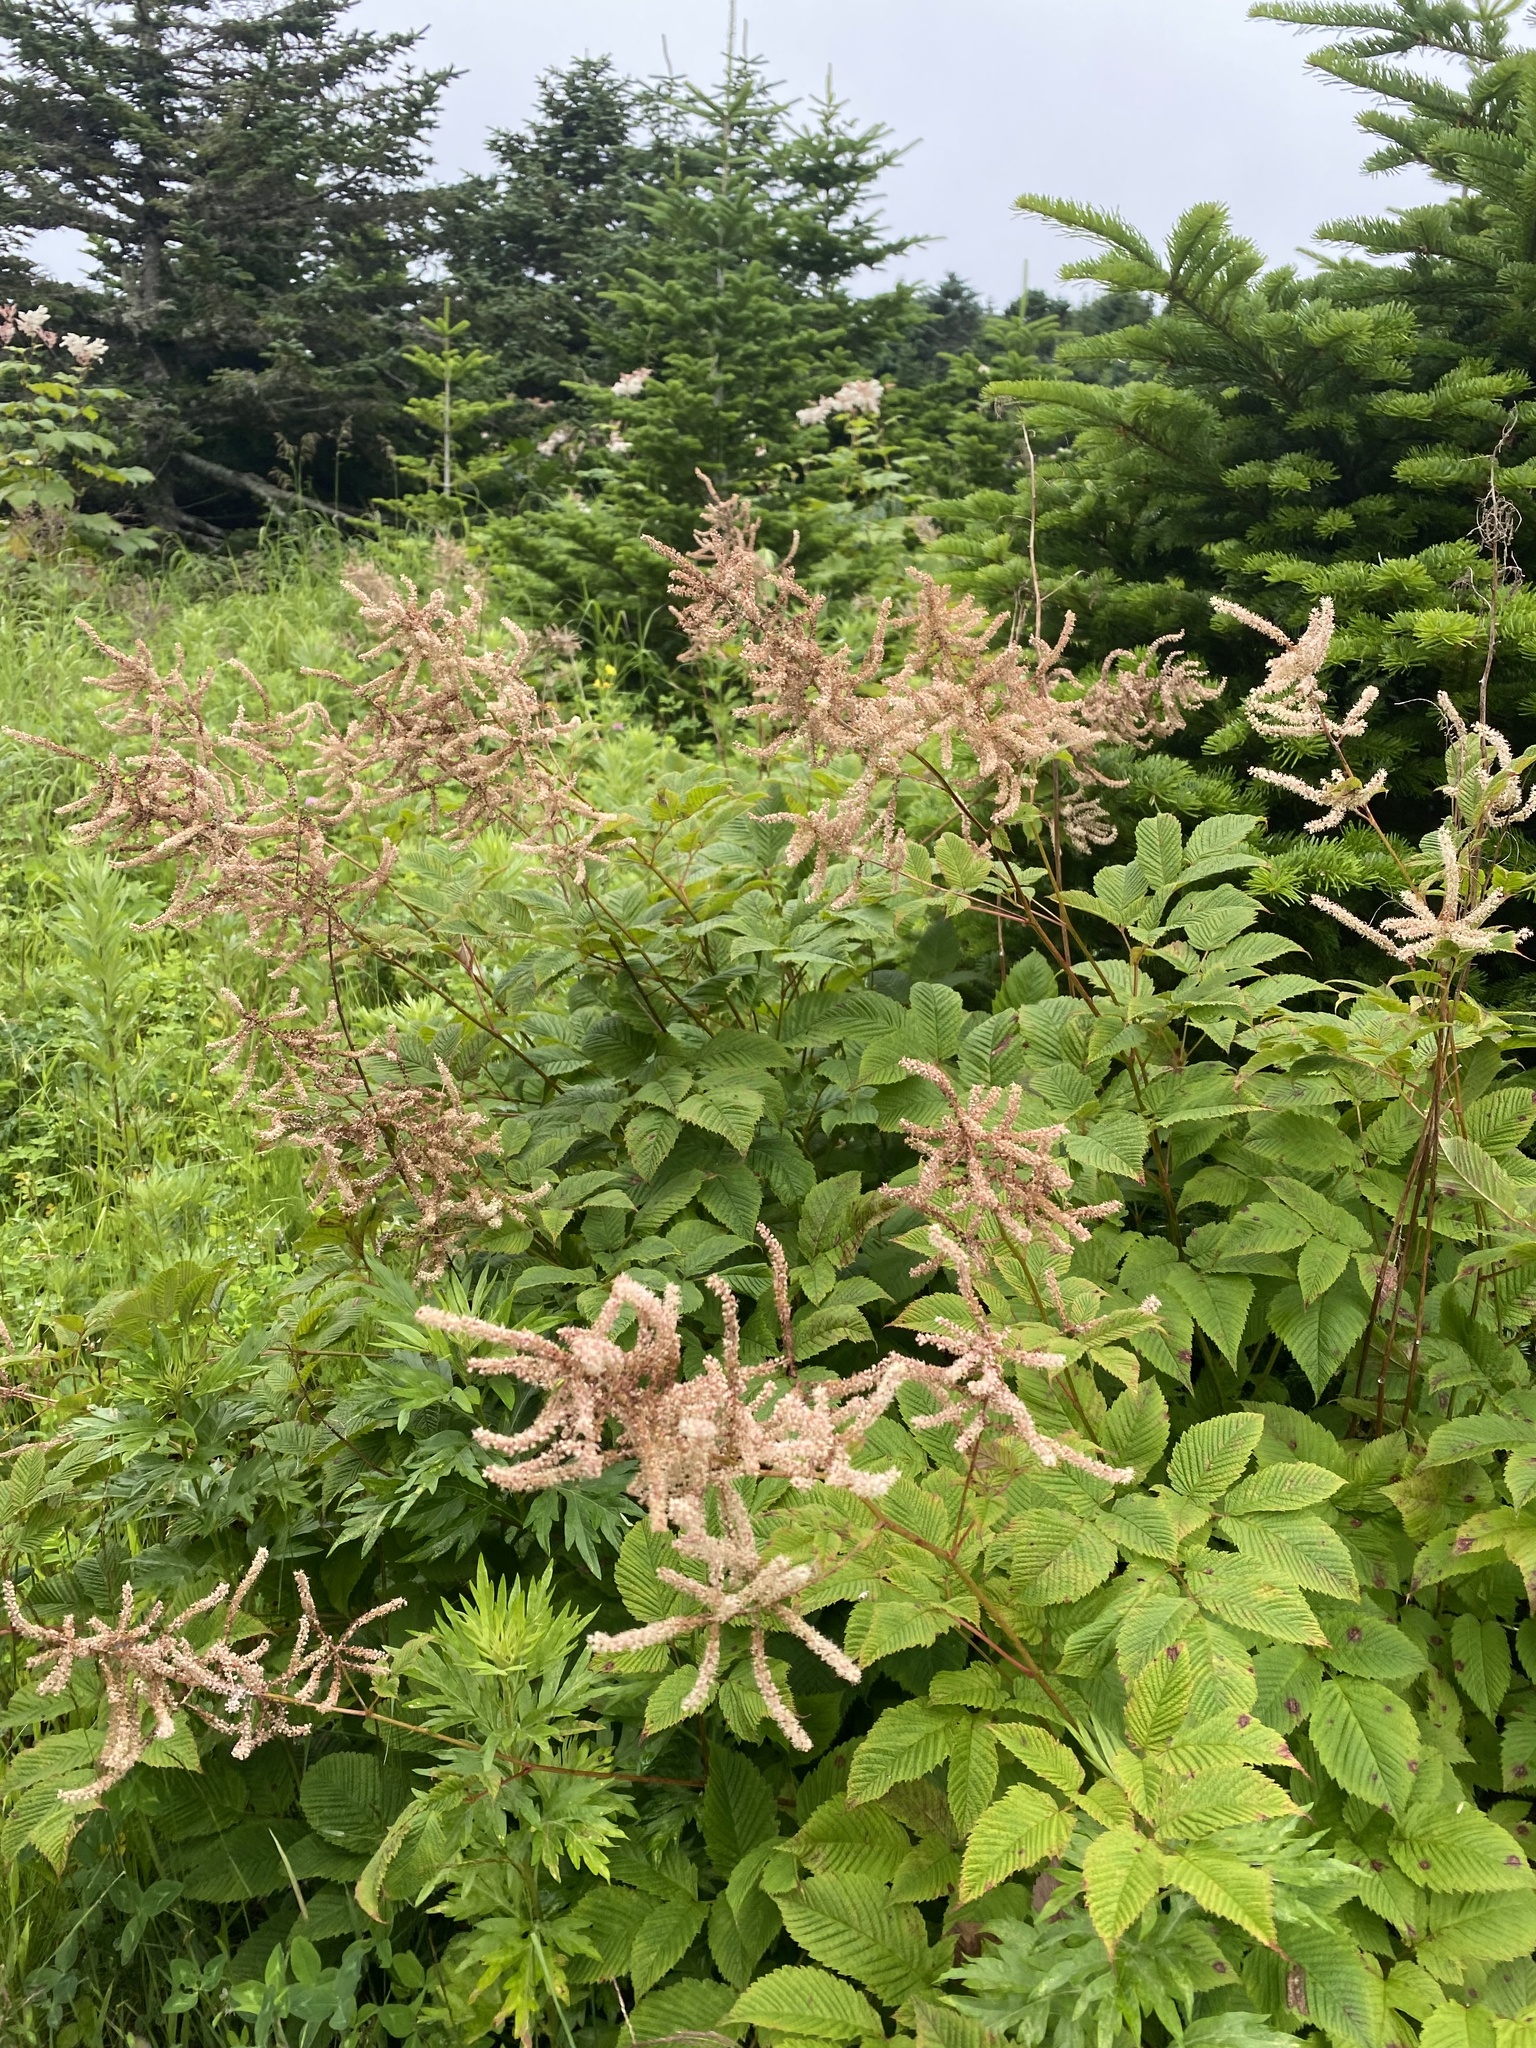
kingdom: Plantae
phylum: Tracheophyta
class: Magnoliopsida
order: Rosales
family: Rosaceae
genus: Aruncus
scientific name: Aruncus dioicus
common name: Buck's-beard
